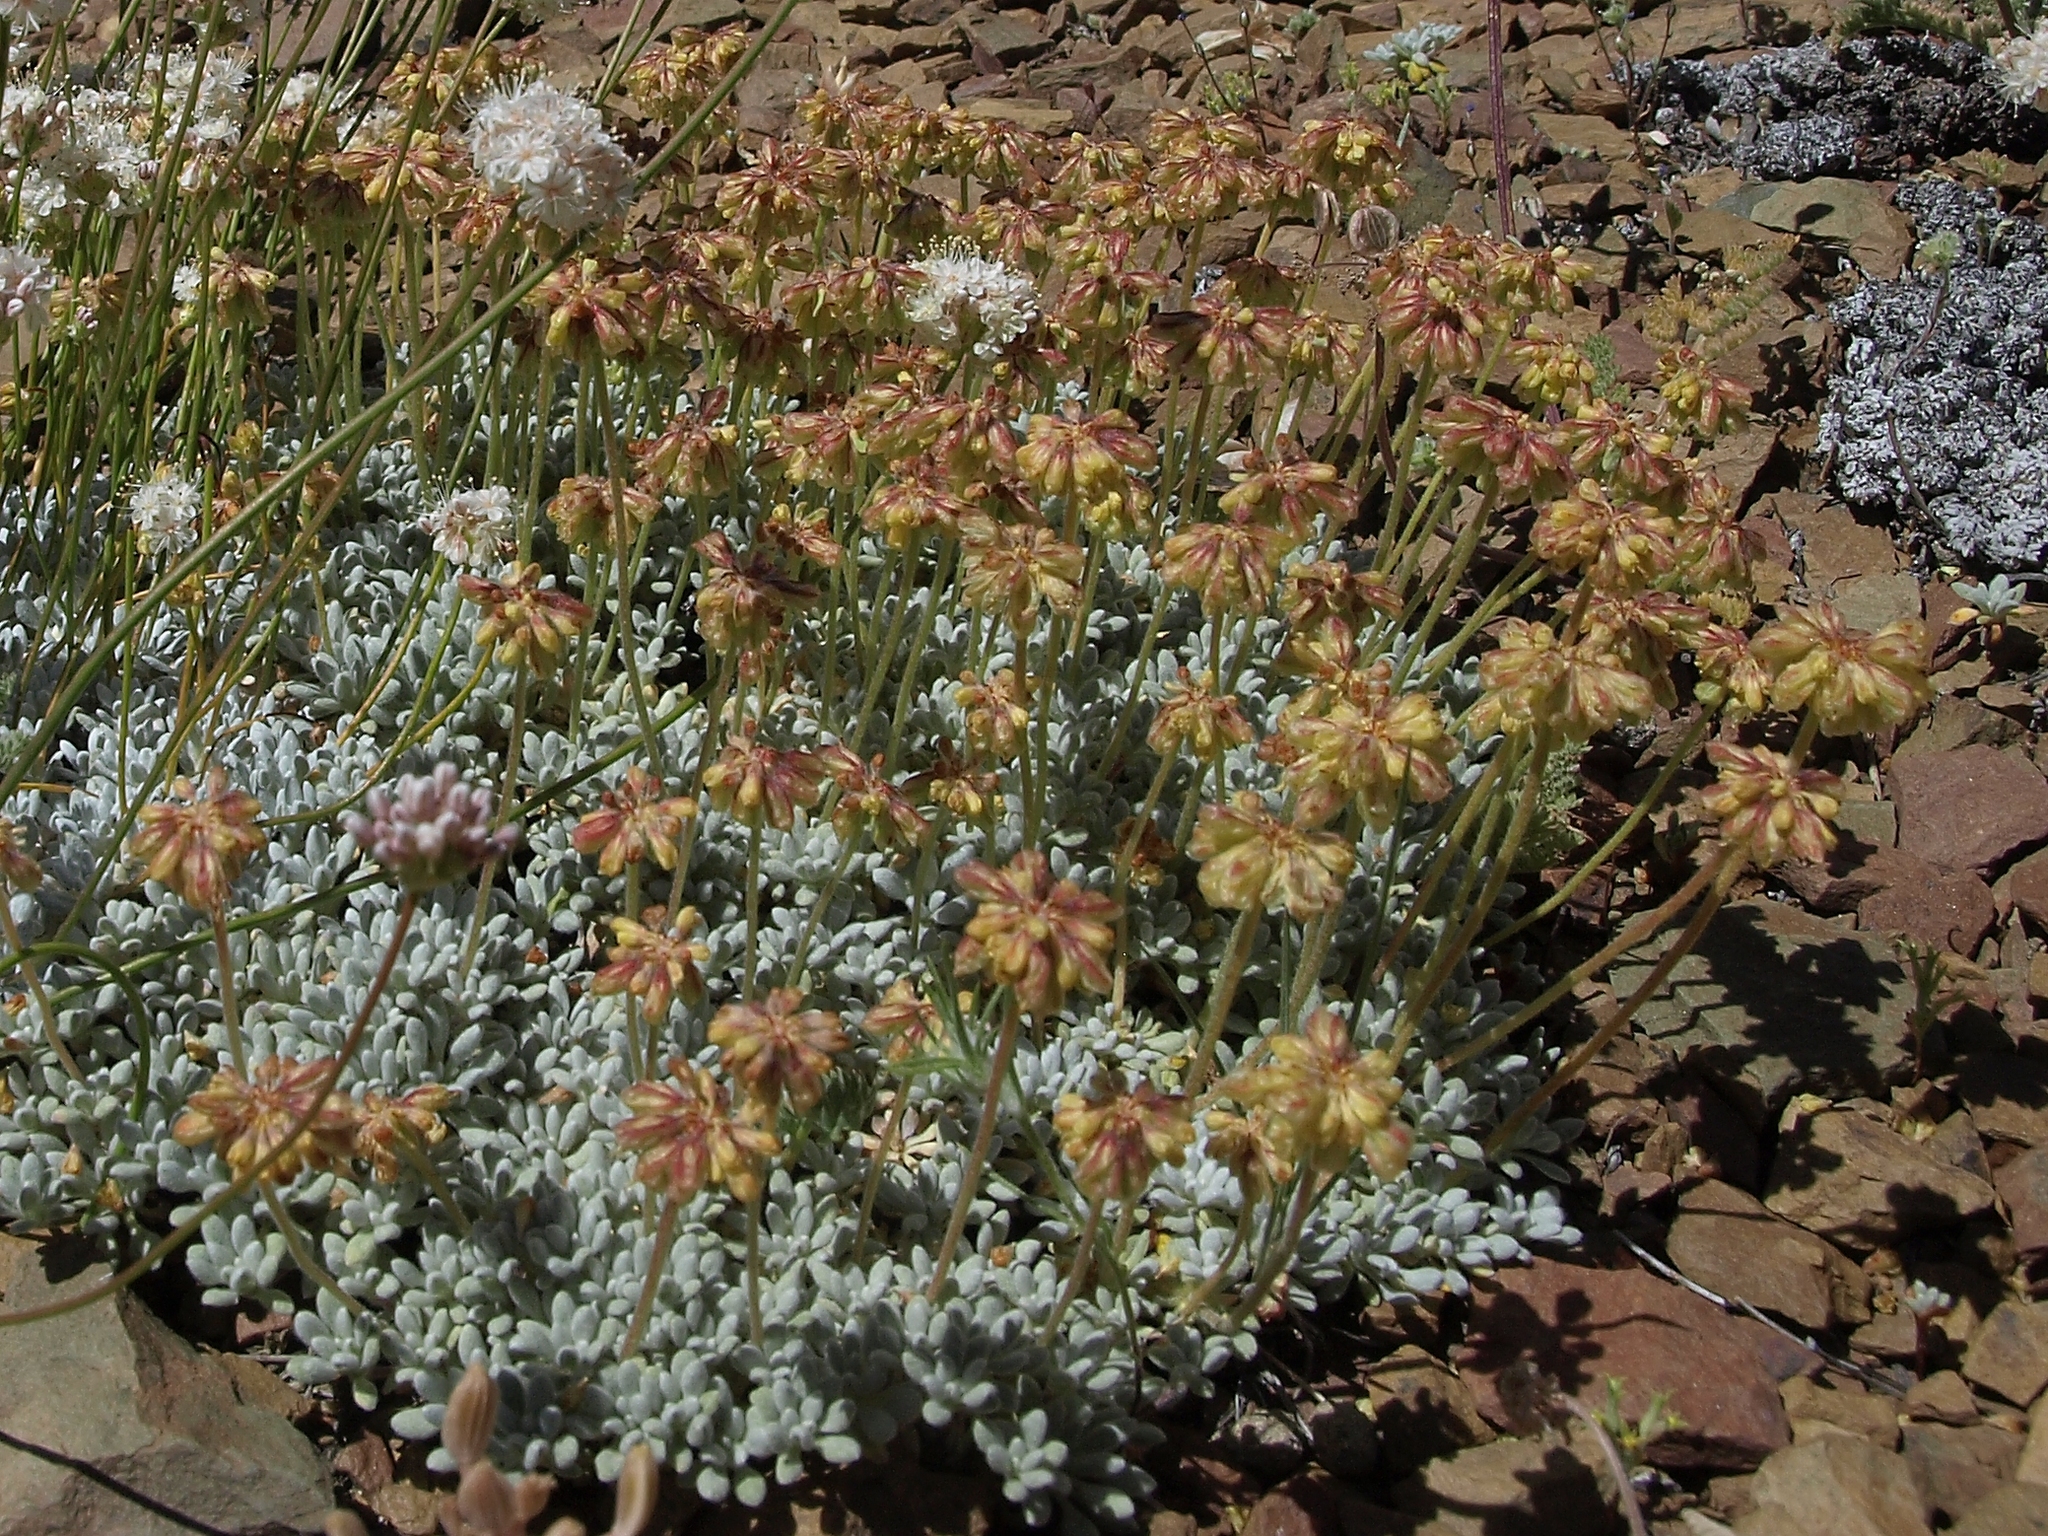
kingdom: Plantae
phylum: Tracheophyta
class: Magnoliopsida
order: Caryophyllales
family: Polygonaceae
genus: Eriogonum
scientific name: Eriogonum caespitosum
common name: Matted wild buckwheat
